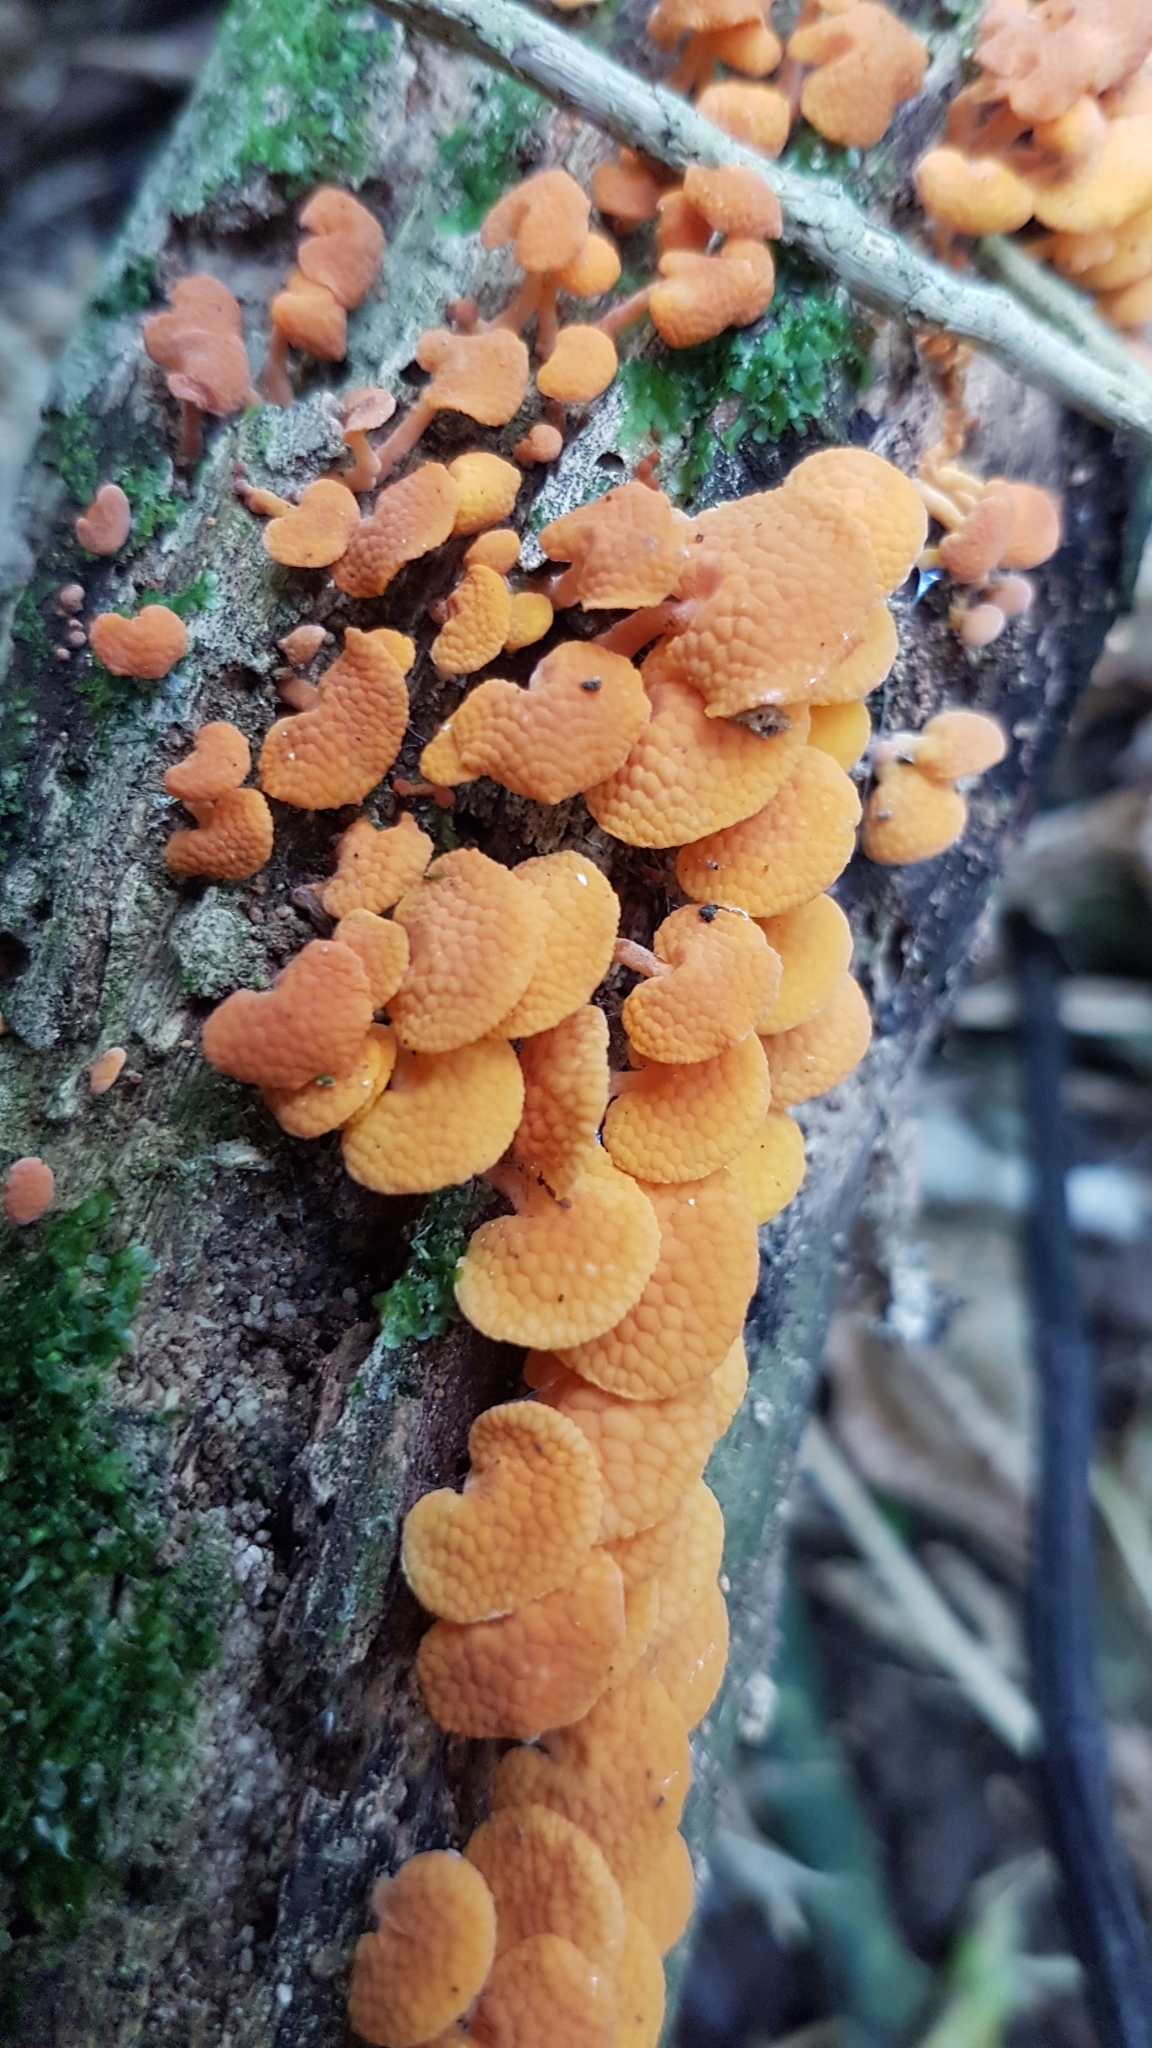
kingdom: Fungi
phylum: Basidiomycota
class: Agaricomycetes
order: Agaricales
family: Mycenaceae
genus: Favolaschia
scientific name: Favolaschia claudopus
